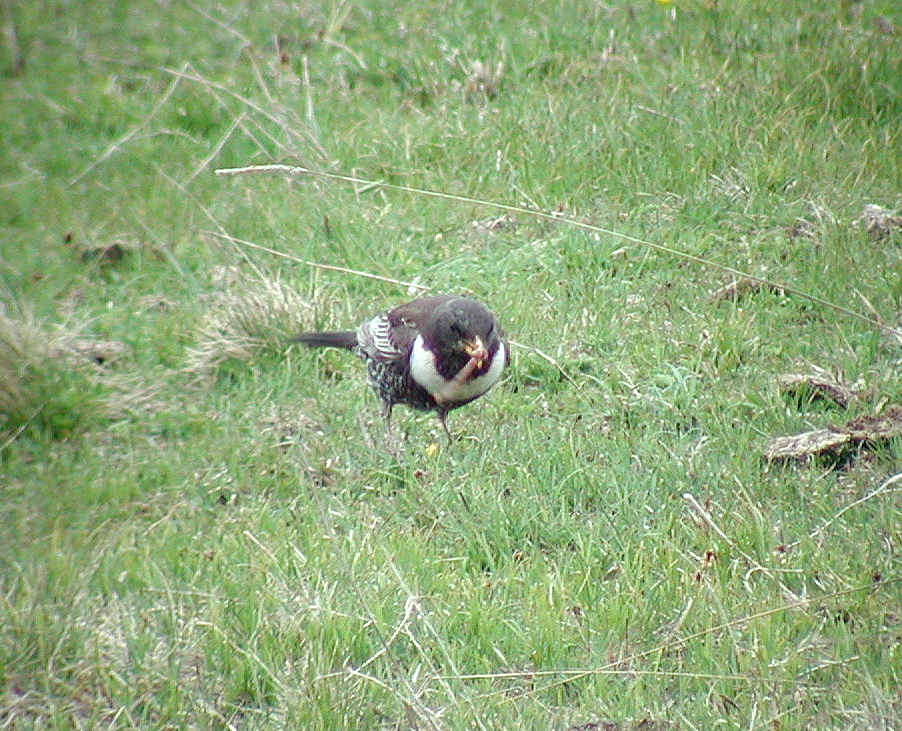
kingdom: Animalia
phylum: Chordata
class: Aves
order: Passeriformes
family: Turdidae
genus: Turdus
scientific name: Turdus torquatus
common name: Ring ouzel
